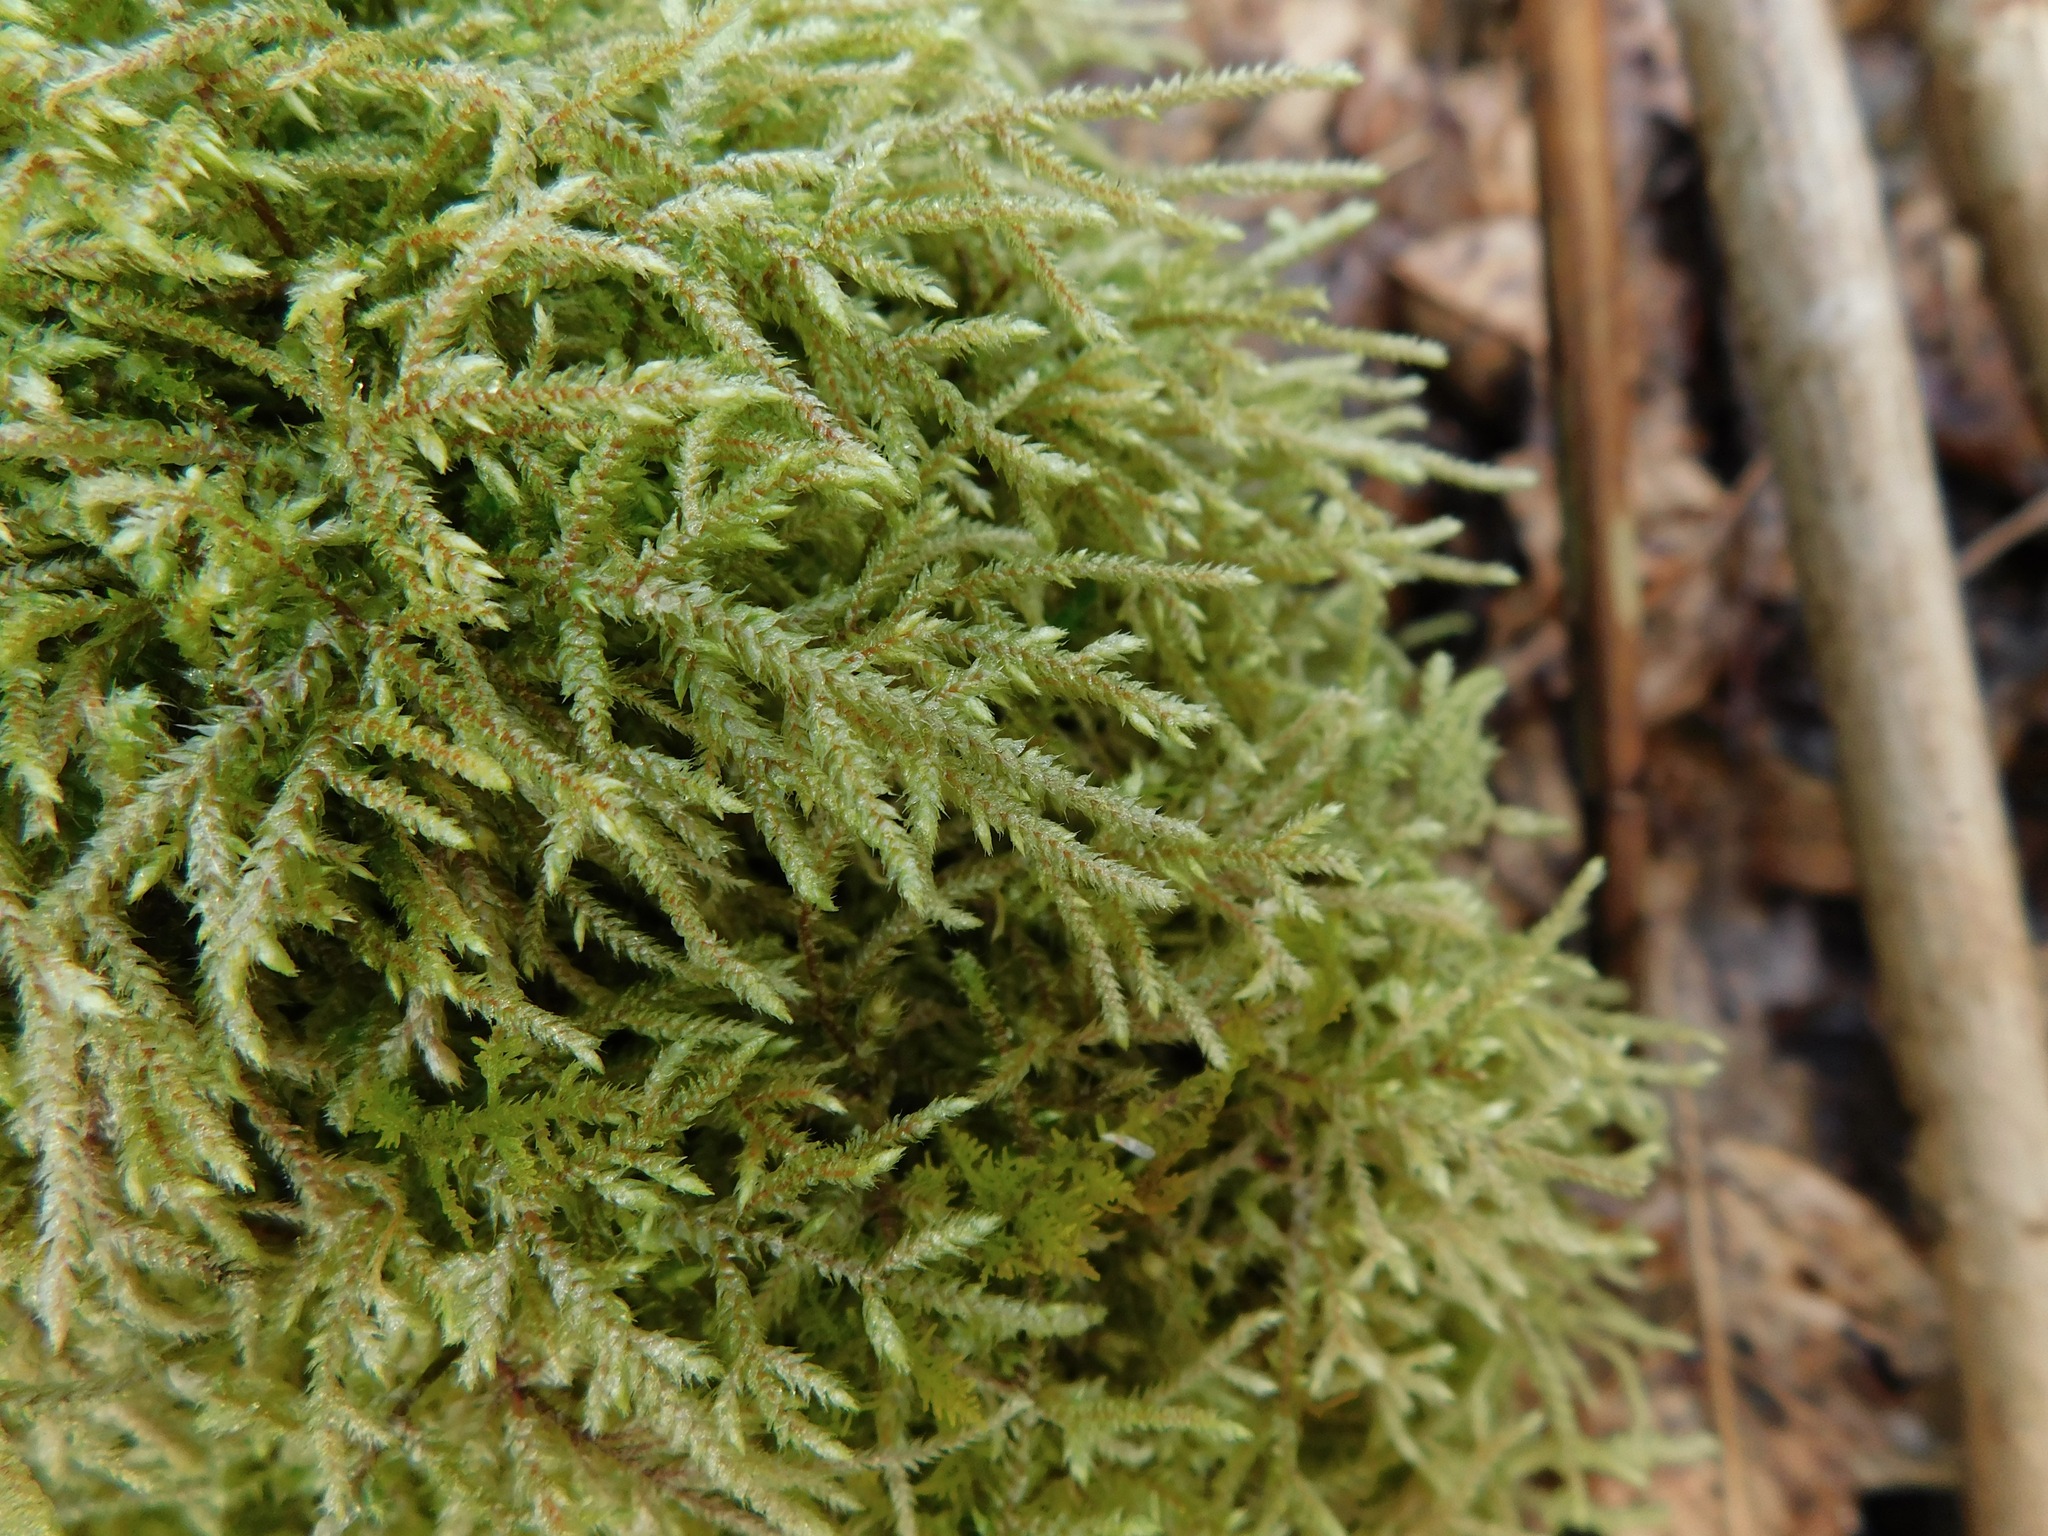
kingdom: Plantae
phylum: Bryophyta
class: Bryopsida
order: Hypnales
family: Hylocomiaceae
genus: Loeskeobryum
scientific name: Loeskeobryum brevirostre
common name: Short-beaked wood-moss
